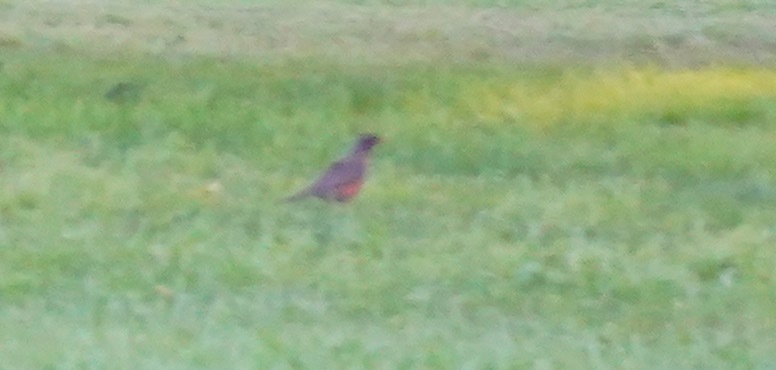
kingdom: Animalia
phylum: Chordata
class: Aves
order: Passeriformes
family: Turdidae
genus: Turdus
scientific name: Turdus migratorius
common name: American robin
